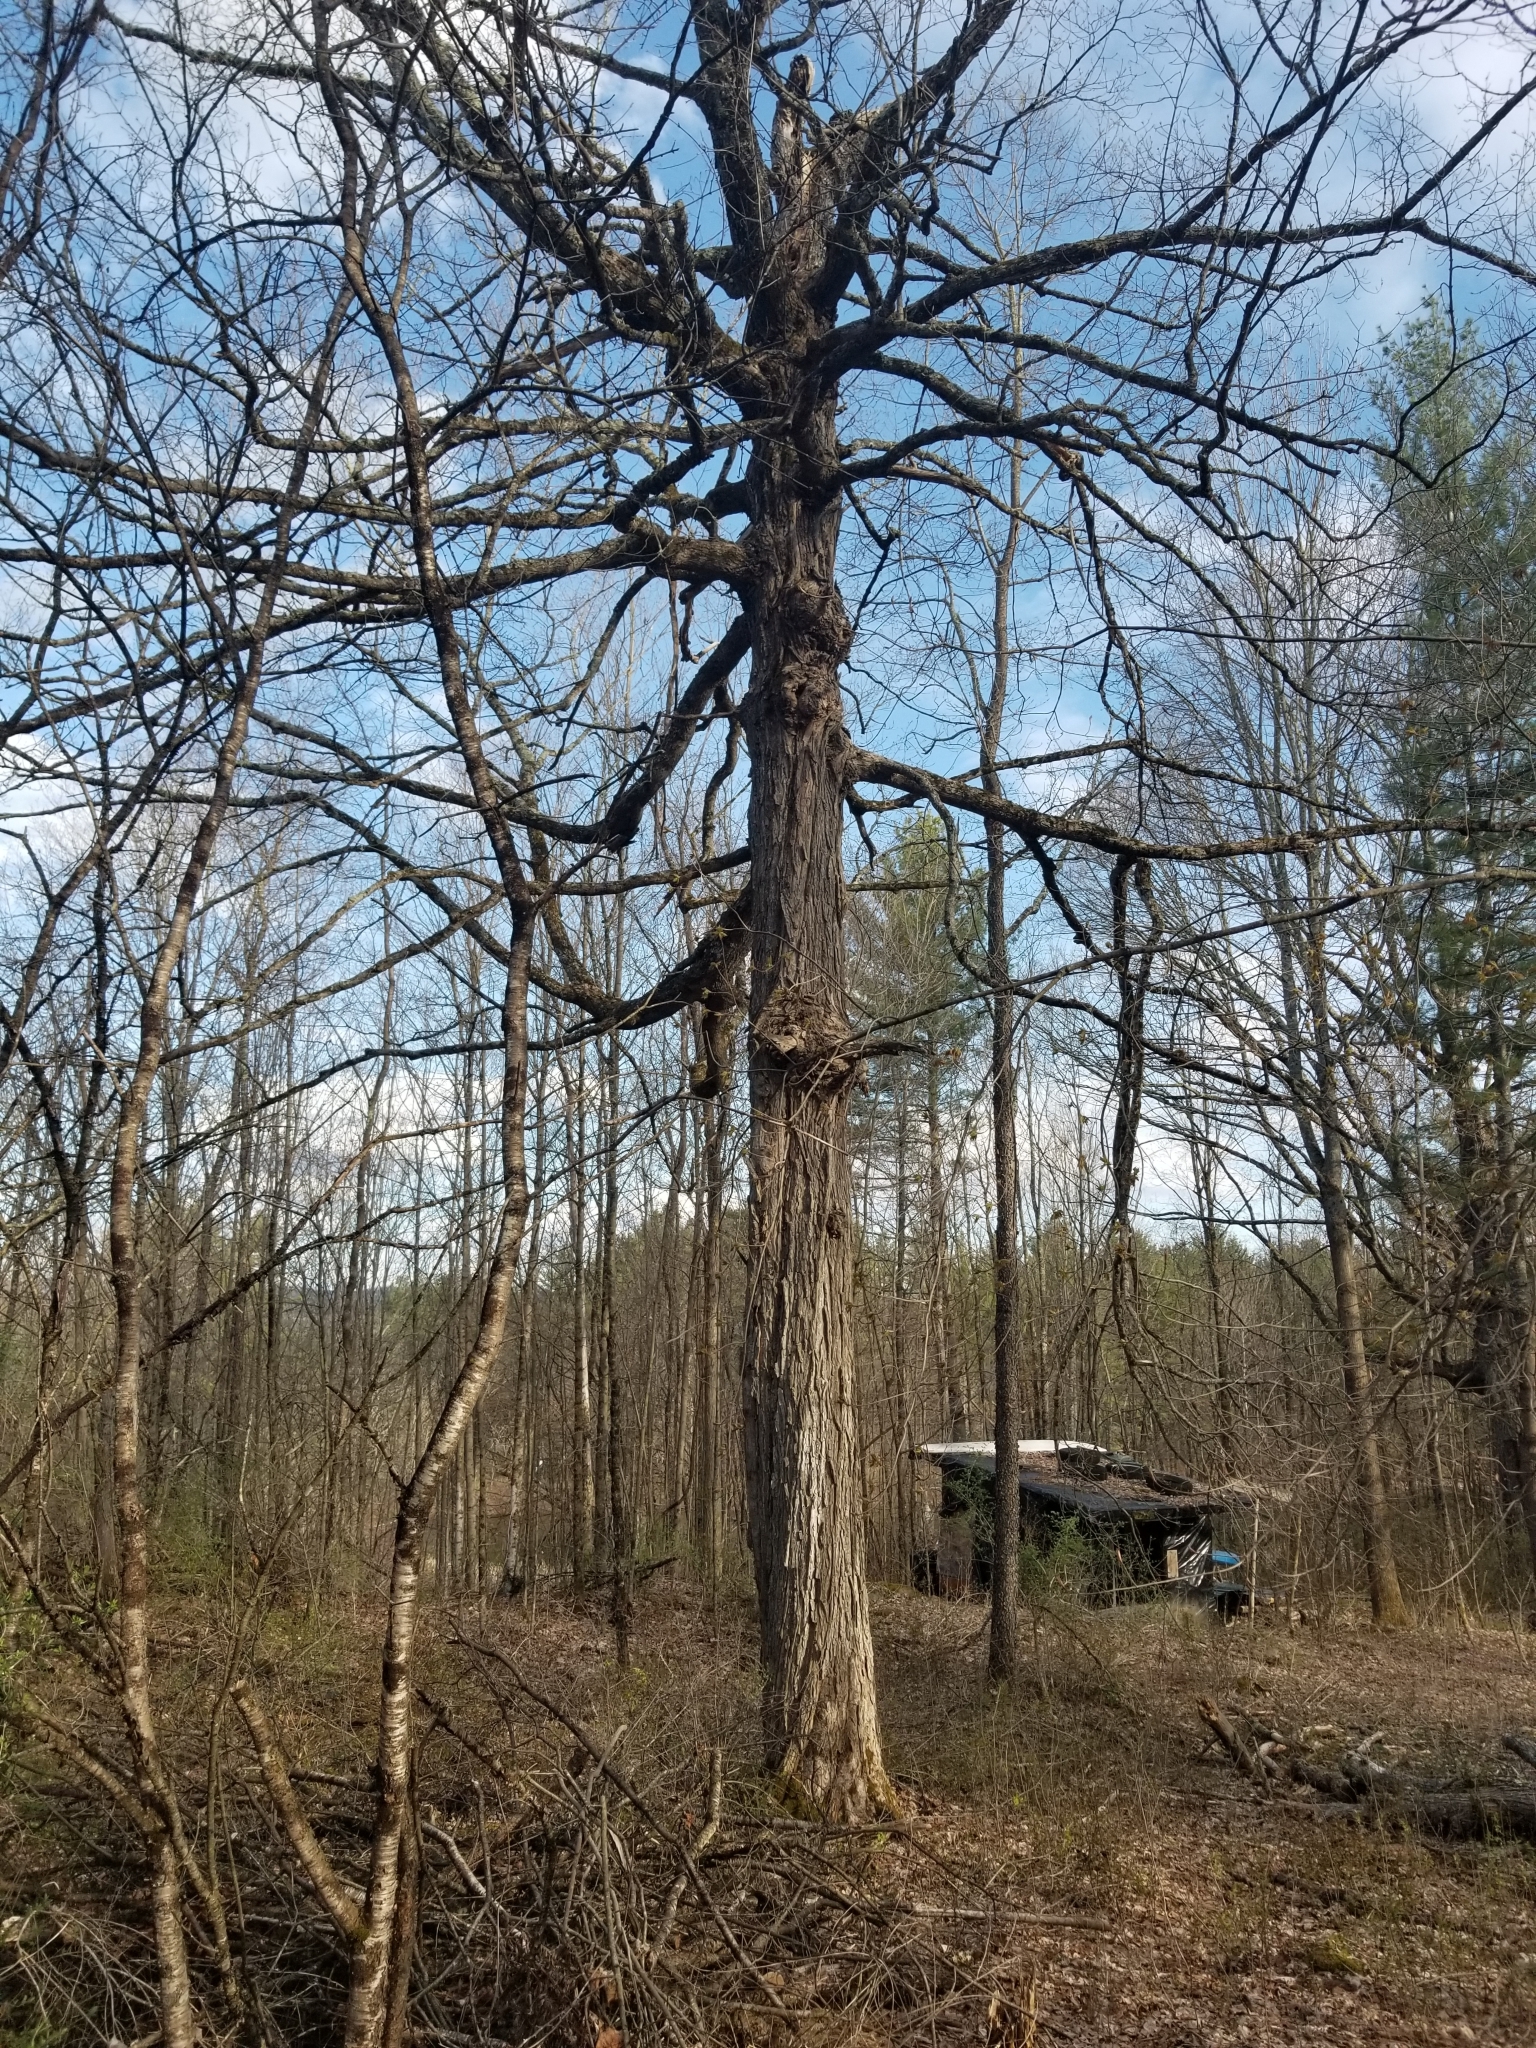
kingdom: Plantae
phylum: Tracheophyta
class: Magnoliopsida
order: Sapindales
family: Sapindaceae
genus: Acer
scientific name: Acer saccharum
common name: Sugar maple
